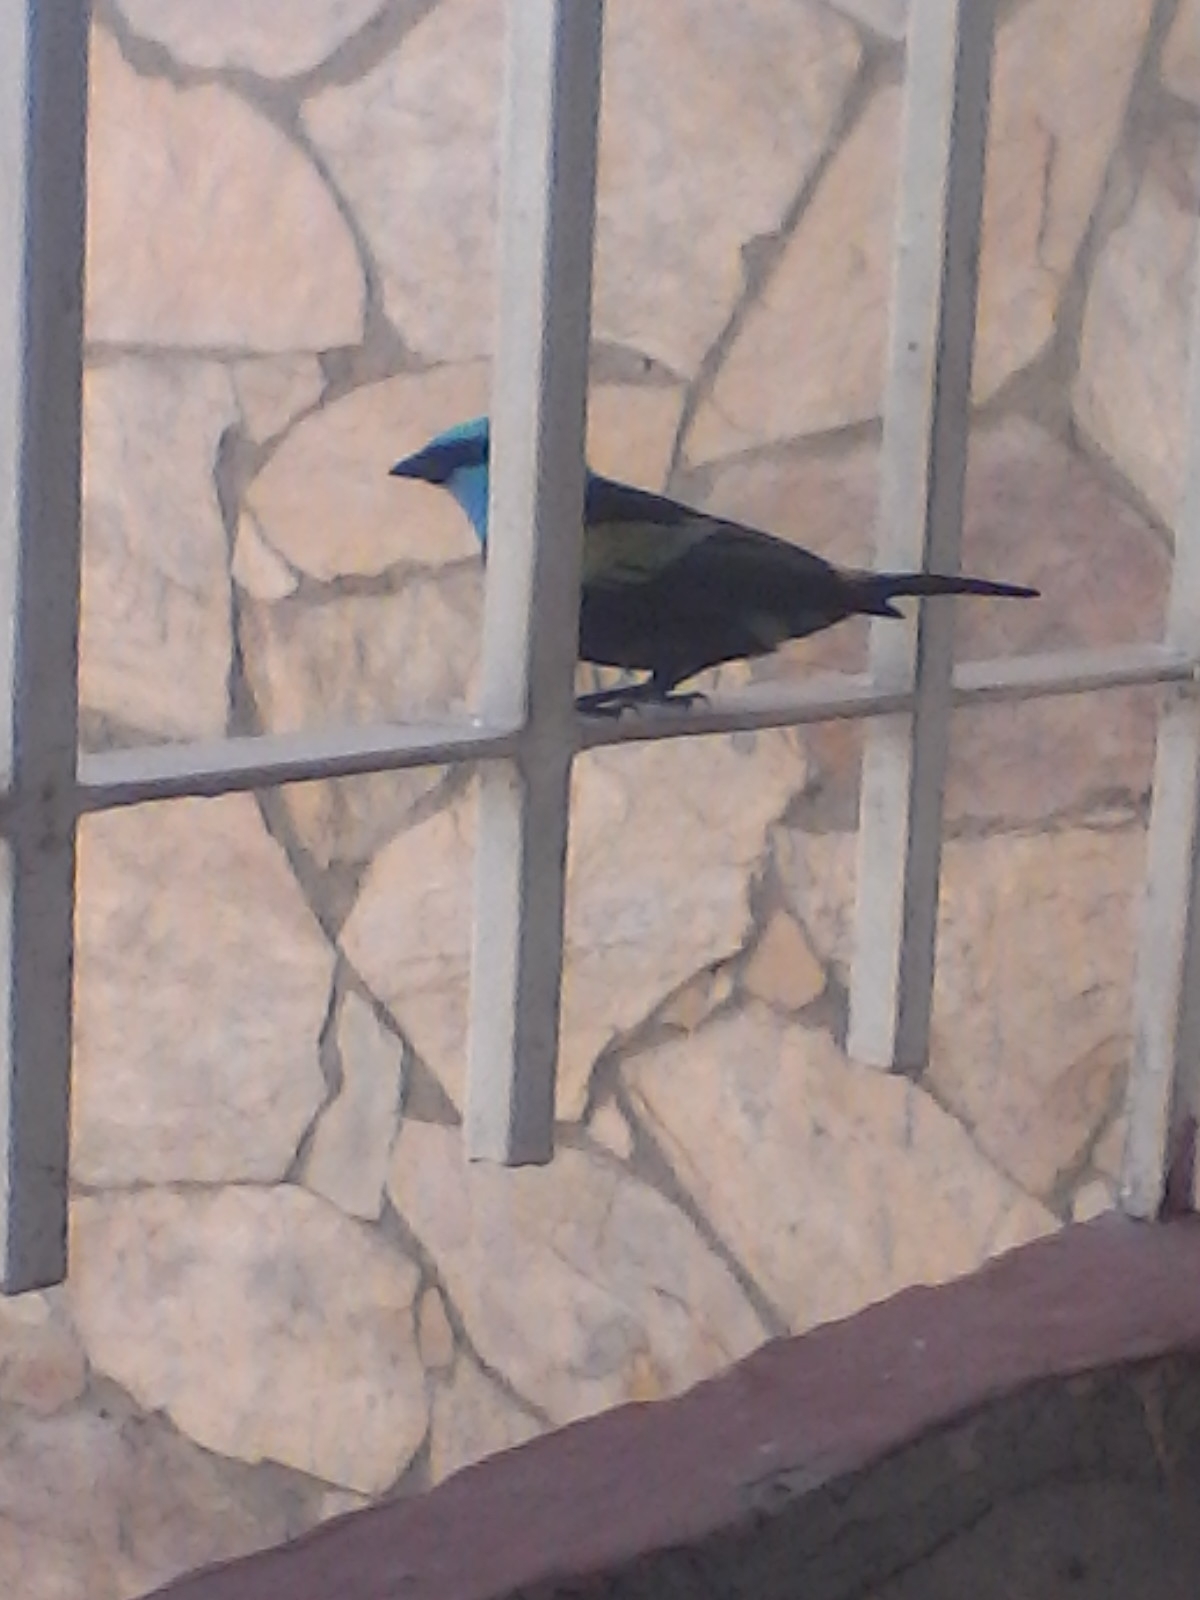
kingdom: Animalia
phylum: Chordata
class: Aves
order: Passeriformes
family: Thraupidae
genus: Stilpnia
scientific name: Stilpnia cyanicollis
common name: Blue-necked tanager
